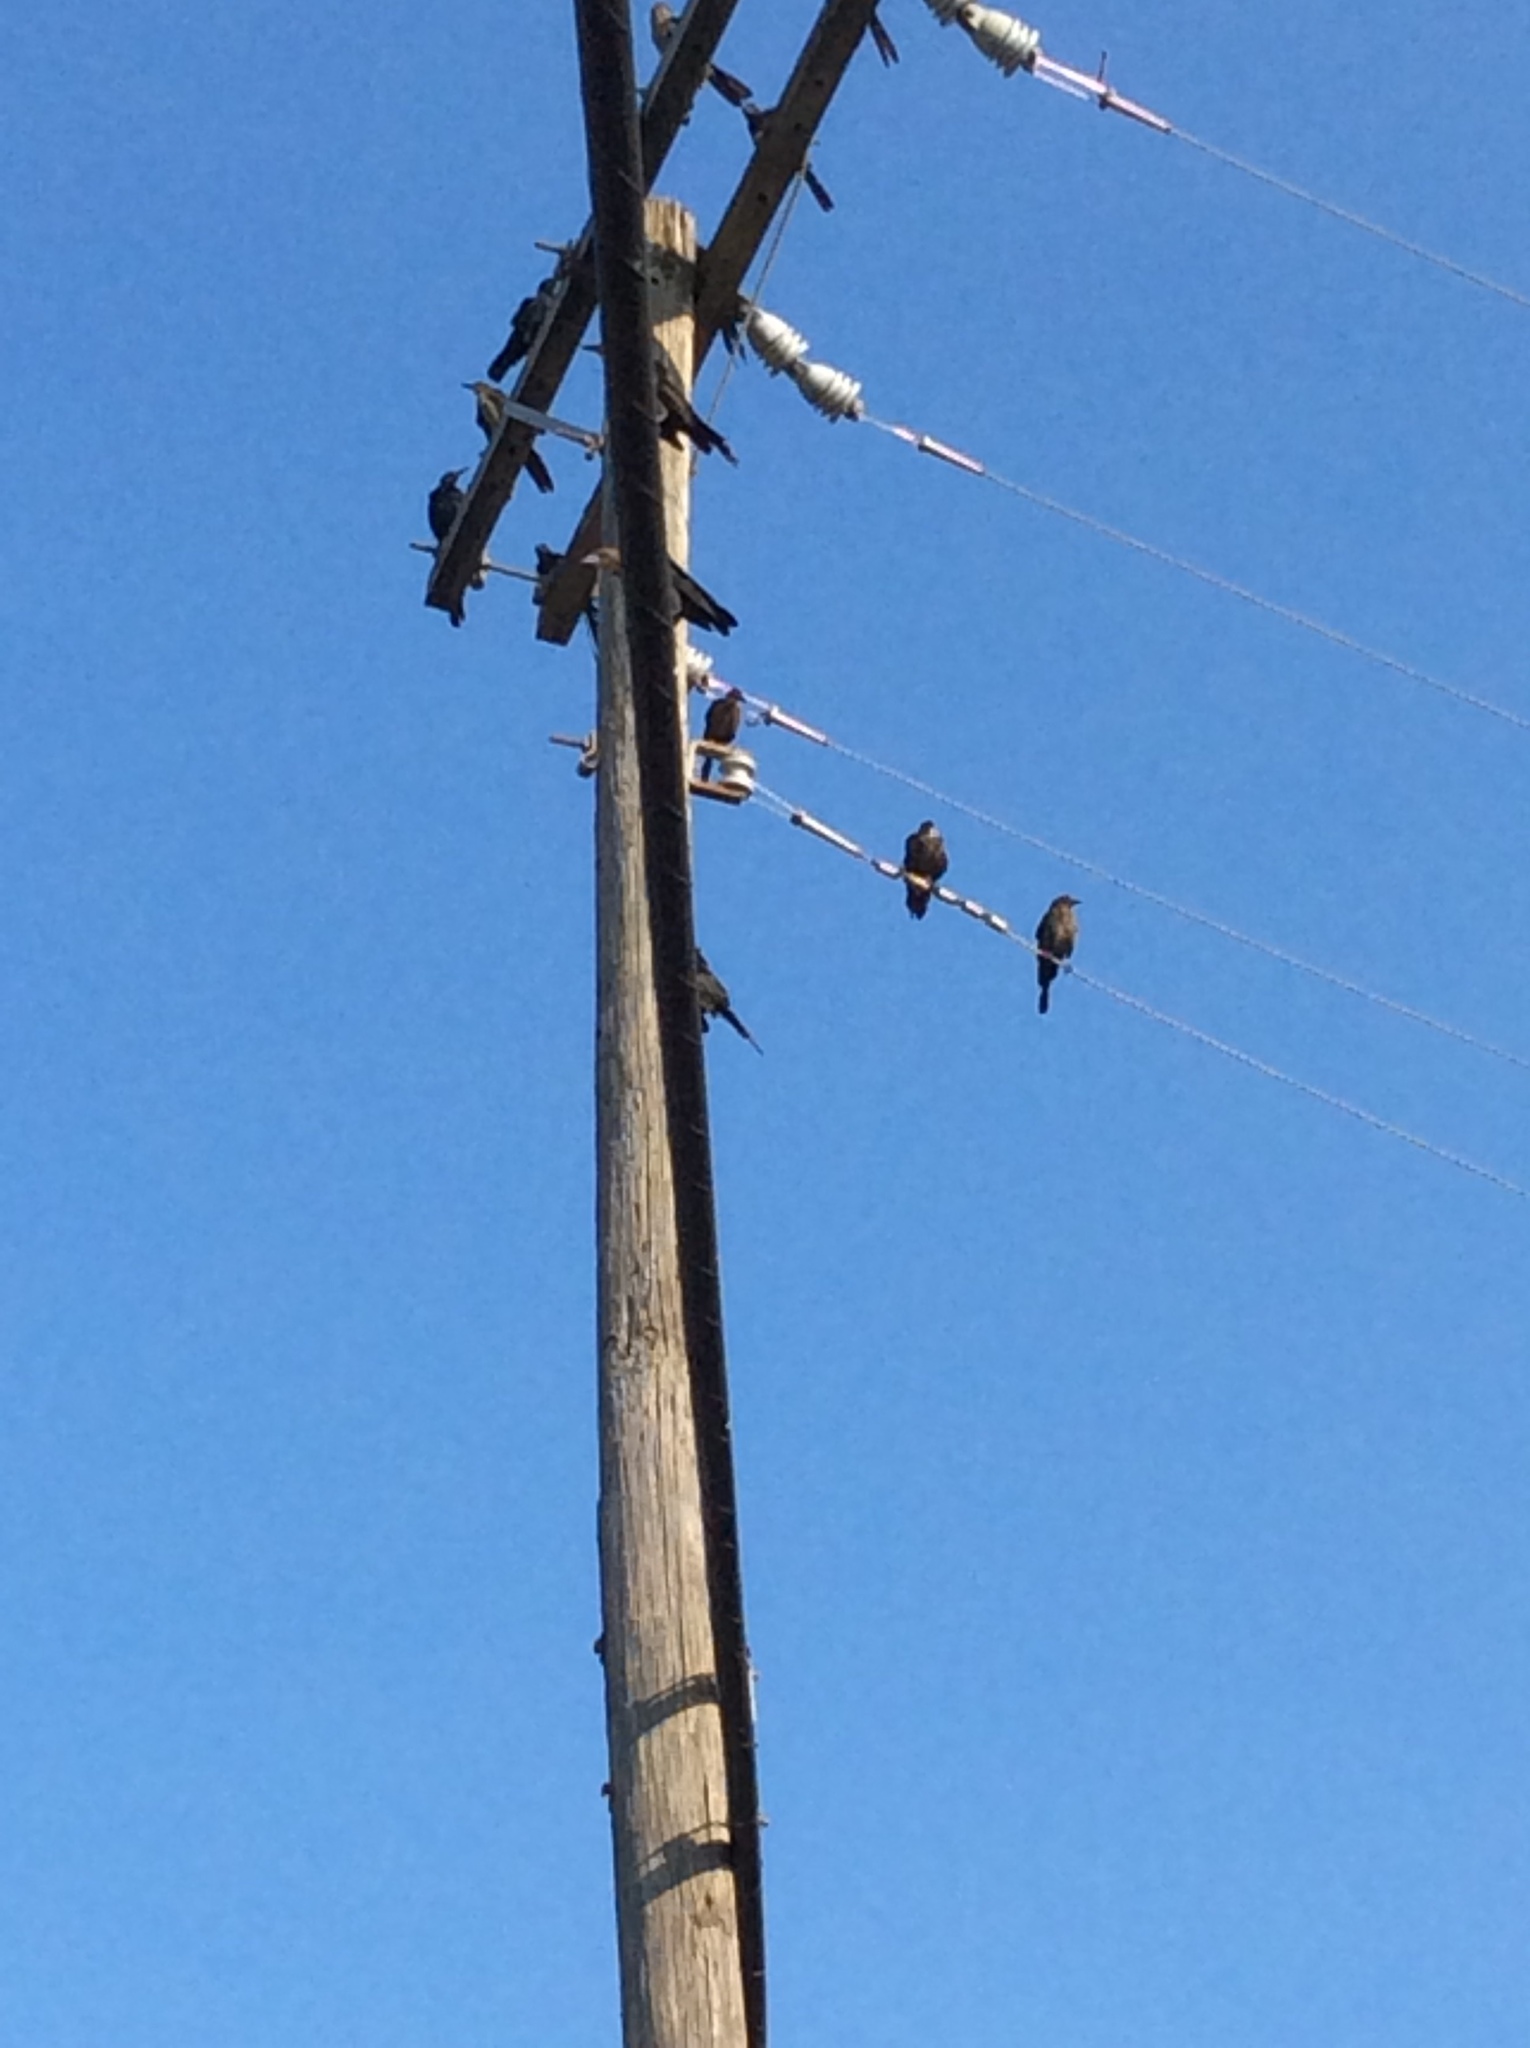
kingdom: Animalia
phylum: Chordata
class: Aves
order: Passeriformes
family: Icteridae
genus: Quiscalus
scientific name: Quiscalus mexicanus
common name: Great-tailed grackle
